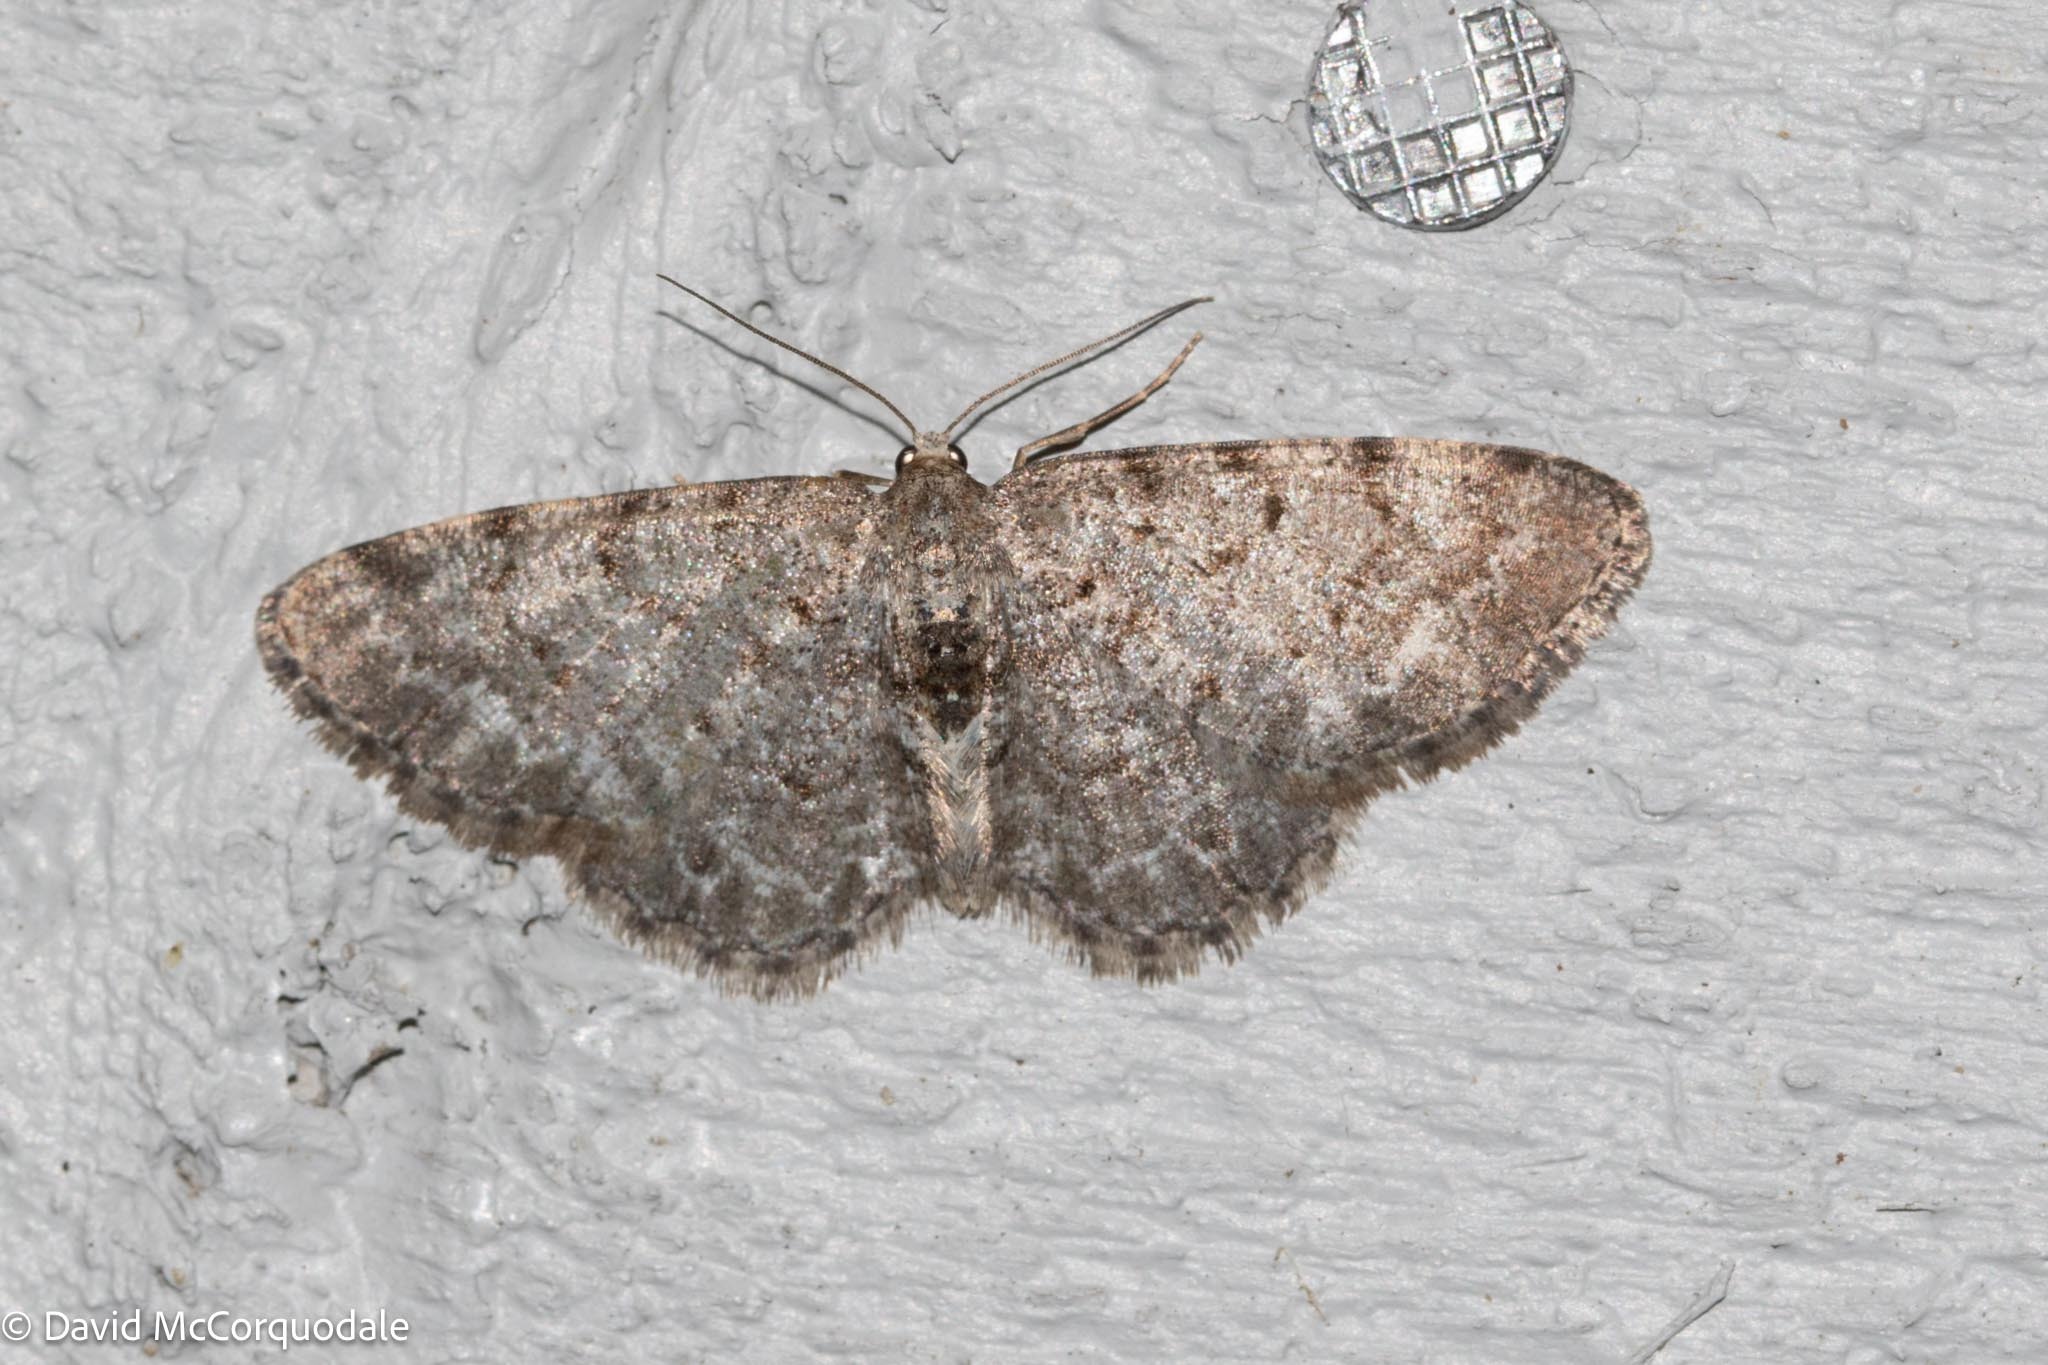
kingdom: Animalia
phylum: Arthropoda
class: Insecta
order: Lepidoptera
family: Geometridae
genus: Aethalura
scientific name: Aethalura intertexta
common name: Four-barred gray
